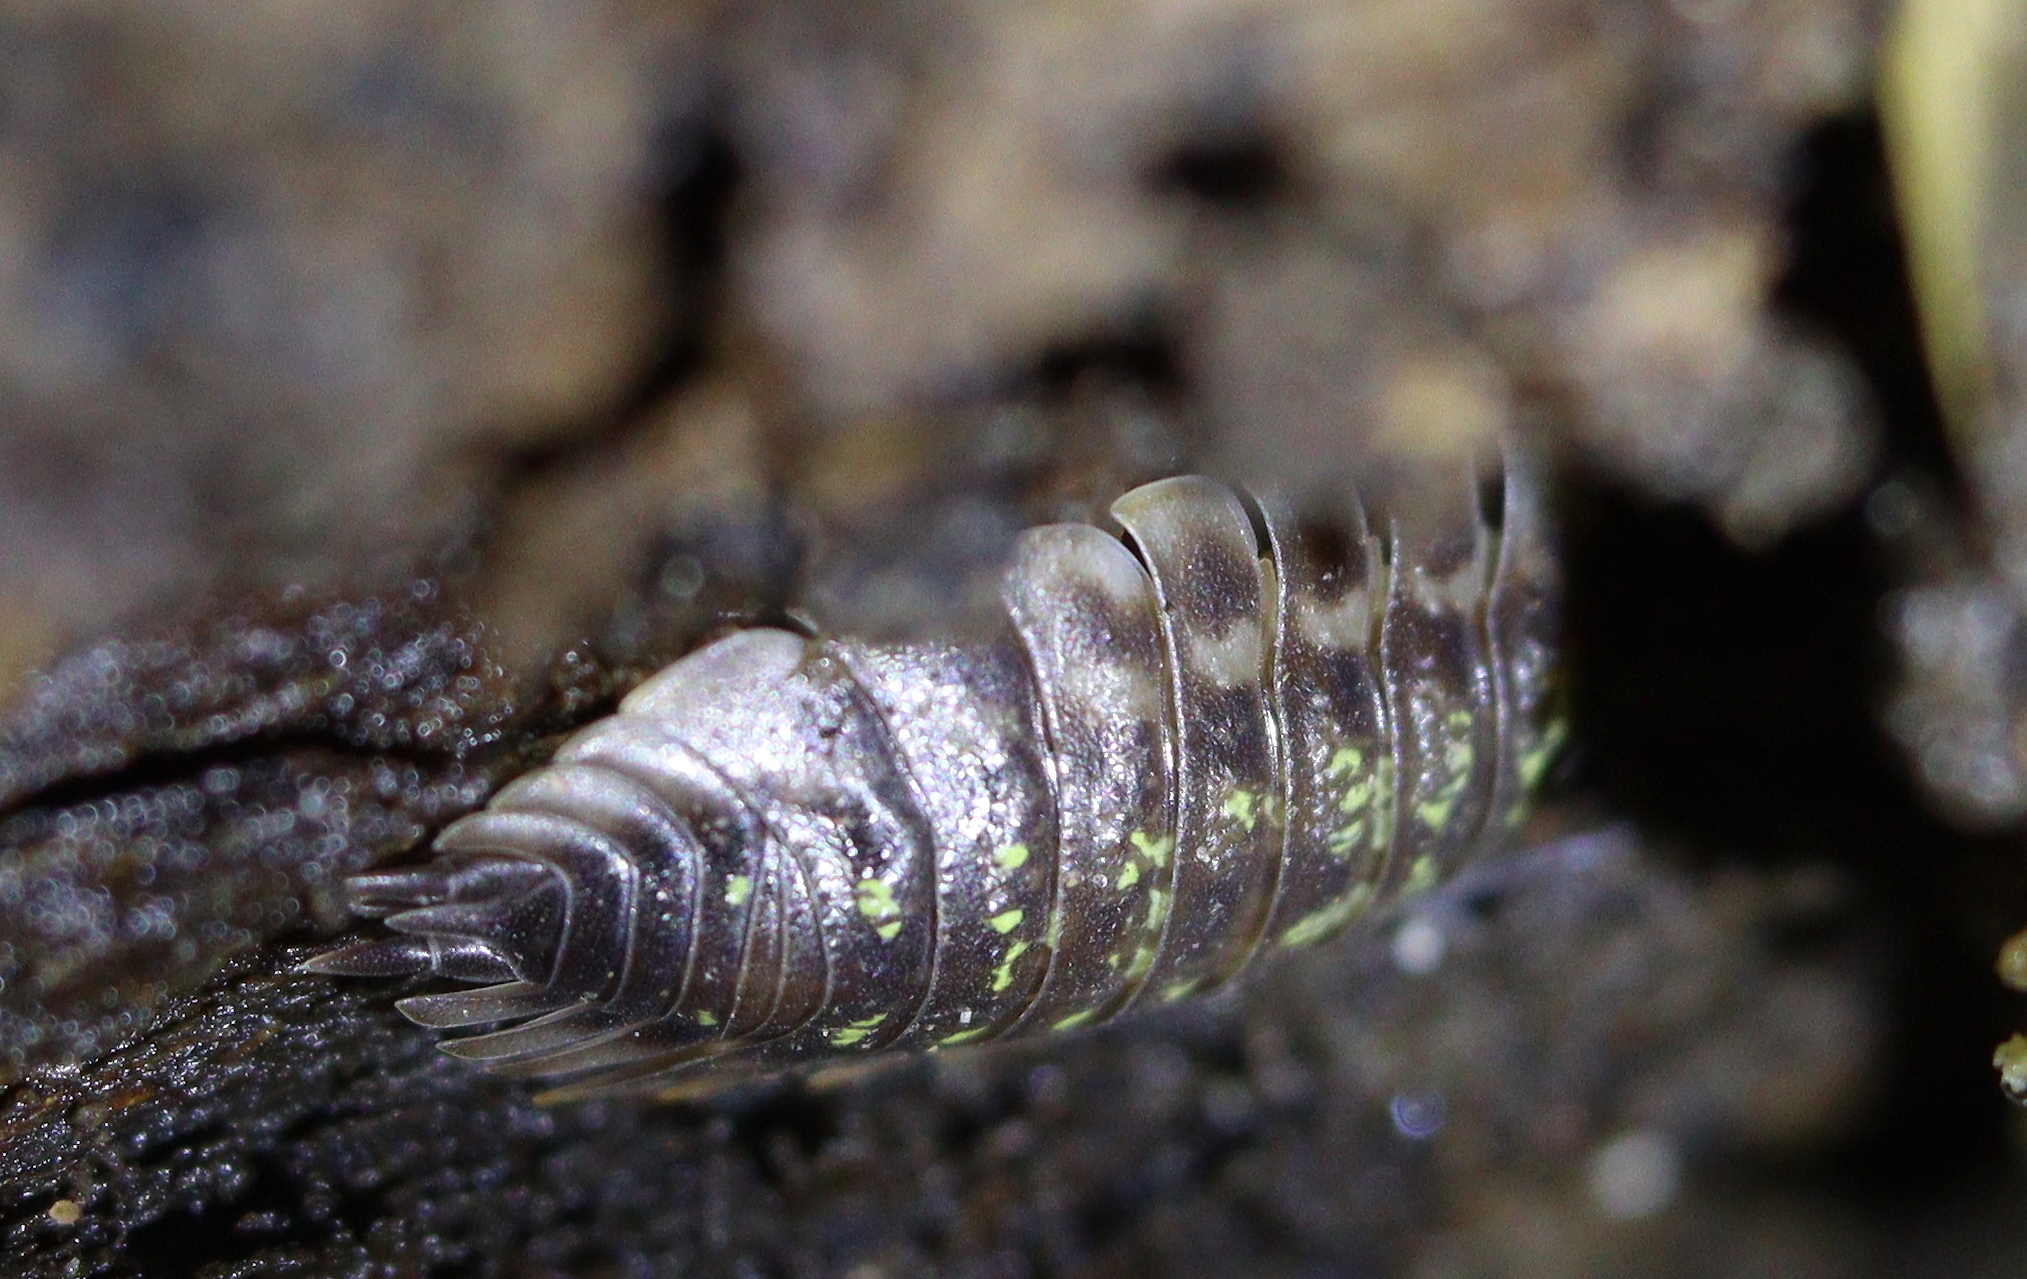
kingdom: Animalia
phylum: Arthropoda
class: Malacostraca
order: Isopoda
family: Oniscidae
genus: Oniscus
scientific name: Oniscus asellus
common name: Common shiny woodlouse
